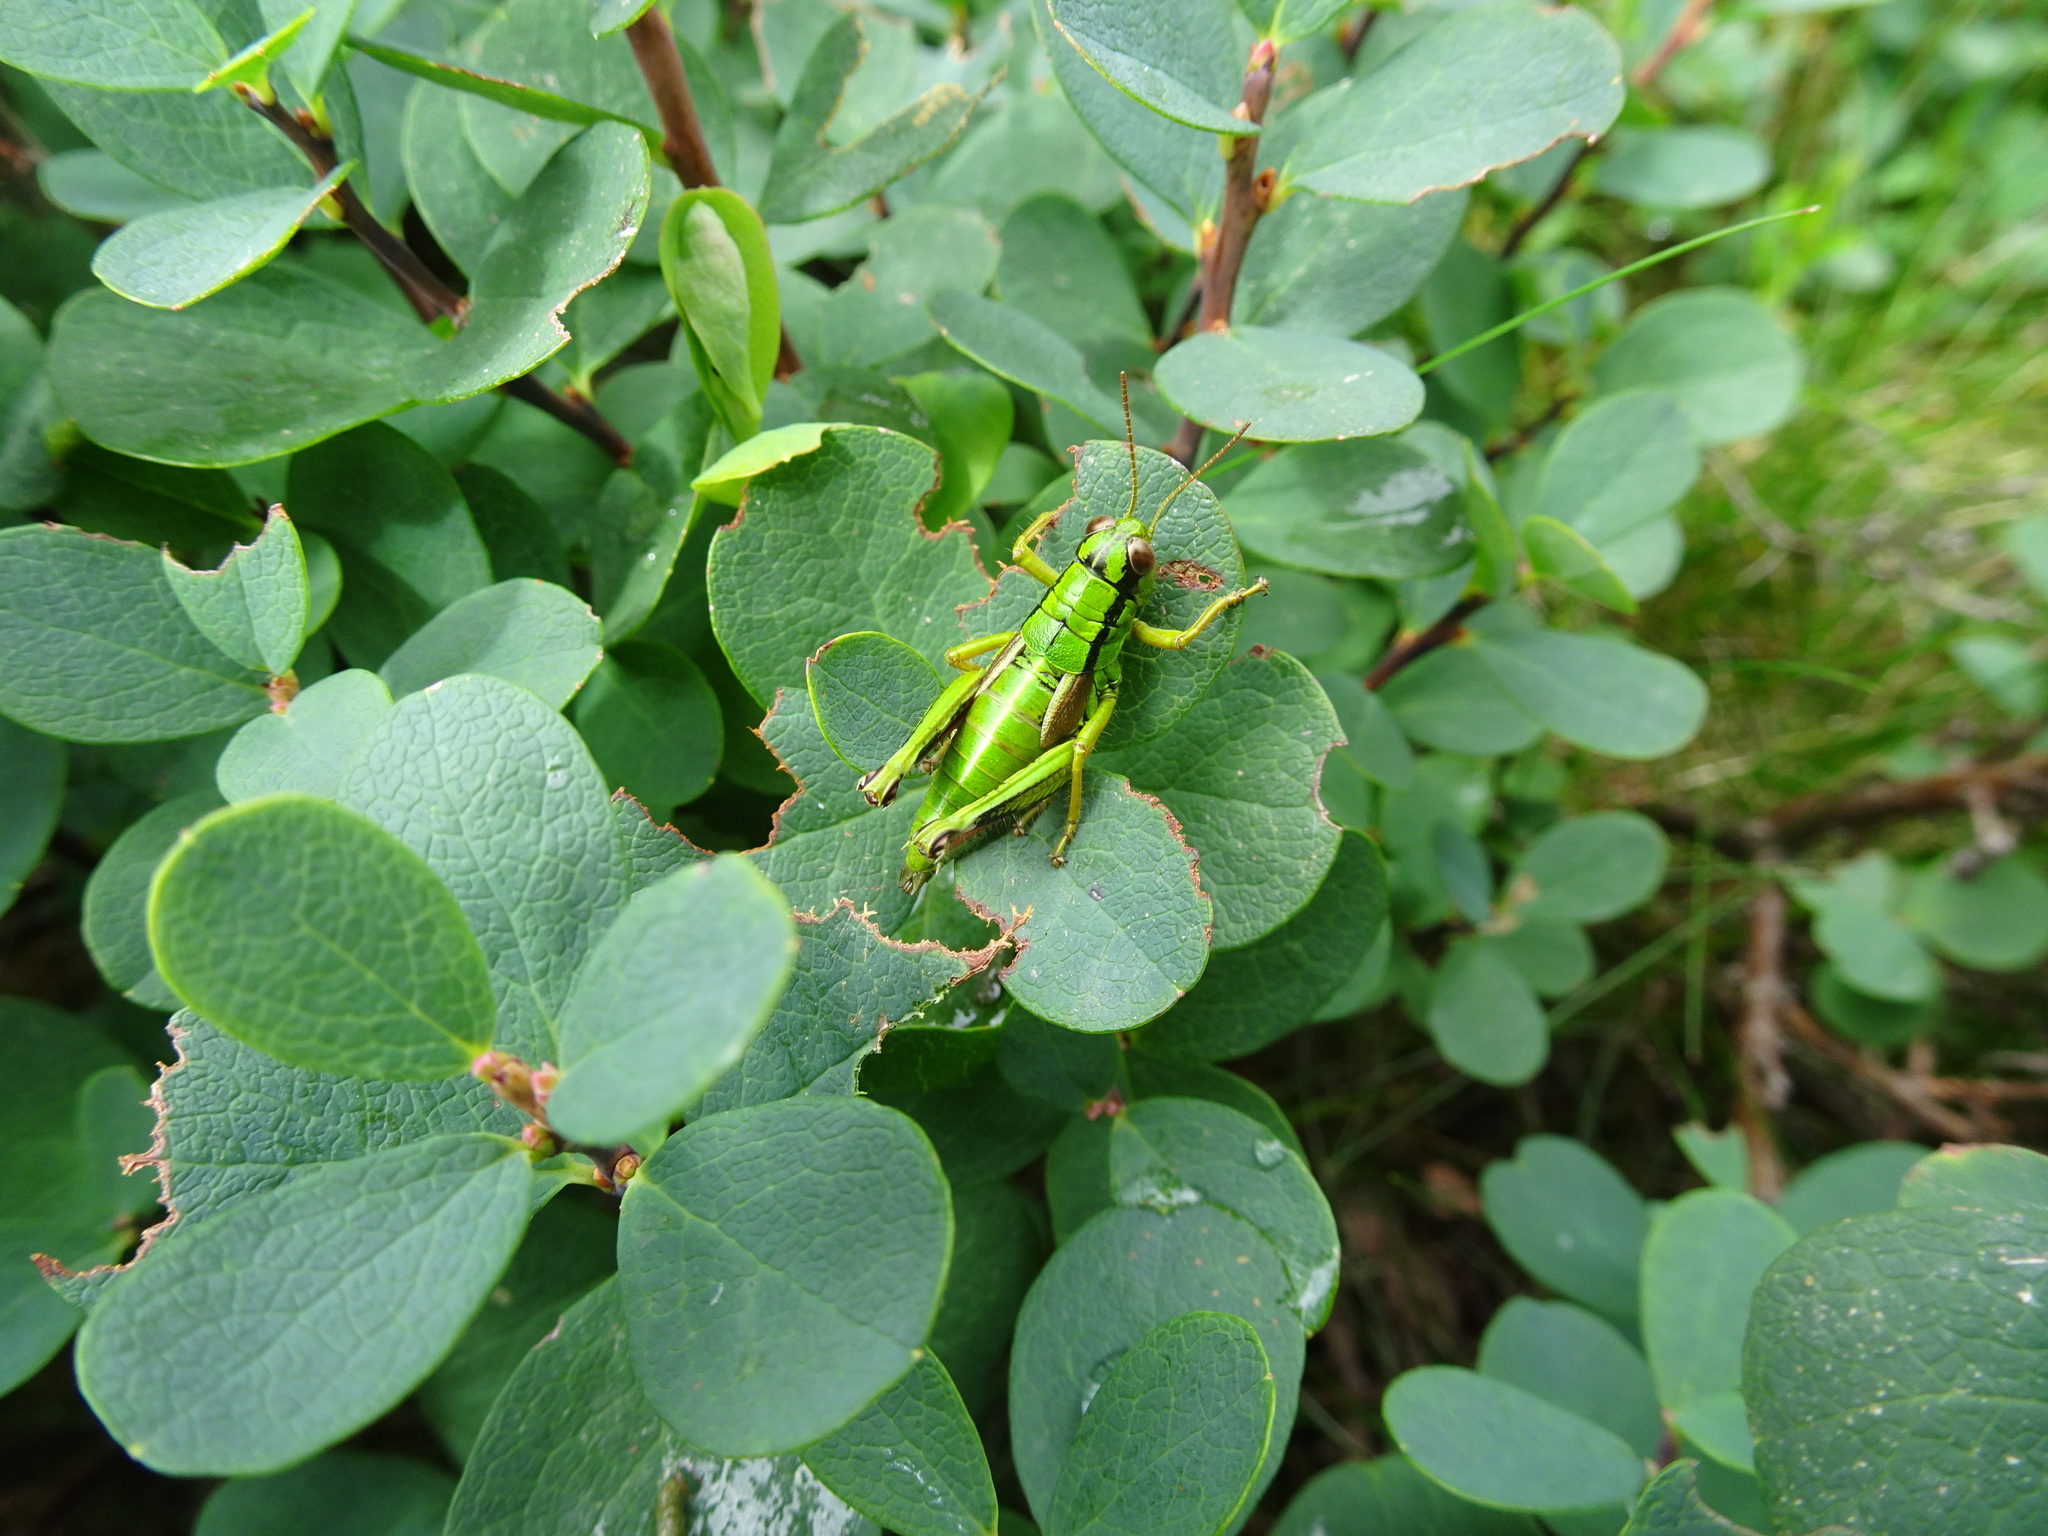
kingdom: Animalia
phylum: Arthropoda
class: Insecta
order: Orthoptera
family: Acrididae
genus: Miramella
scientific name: Miramella alpina
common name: Green mountain grasshopper
